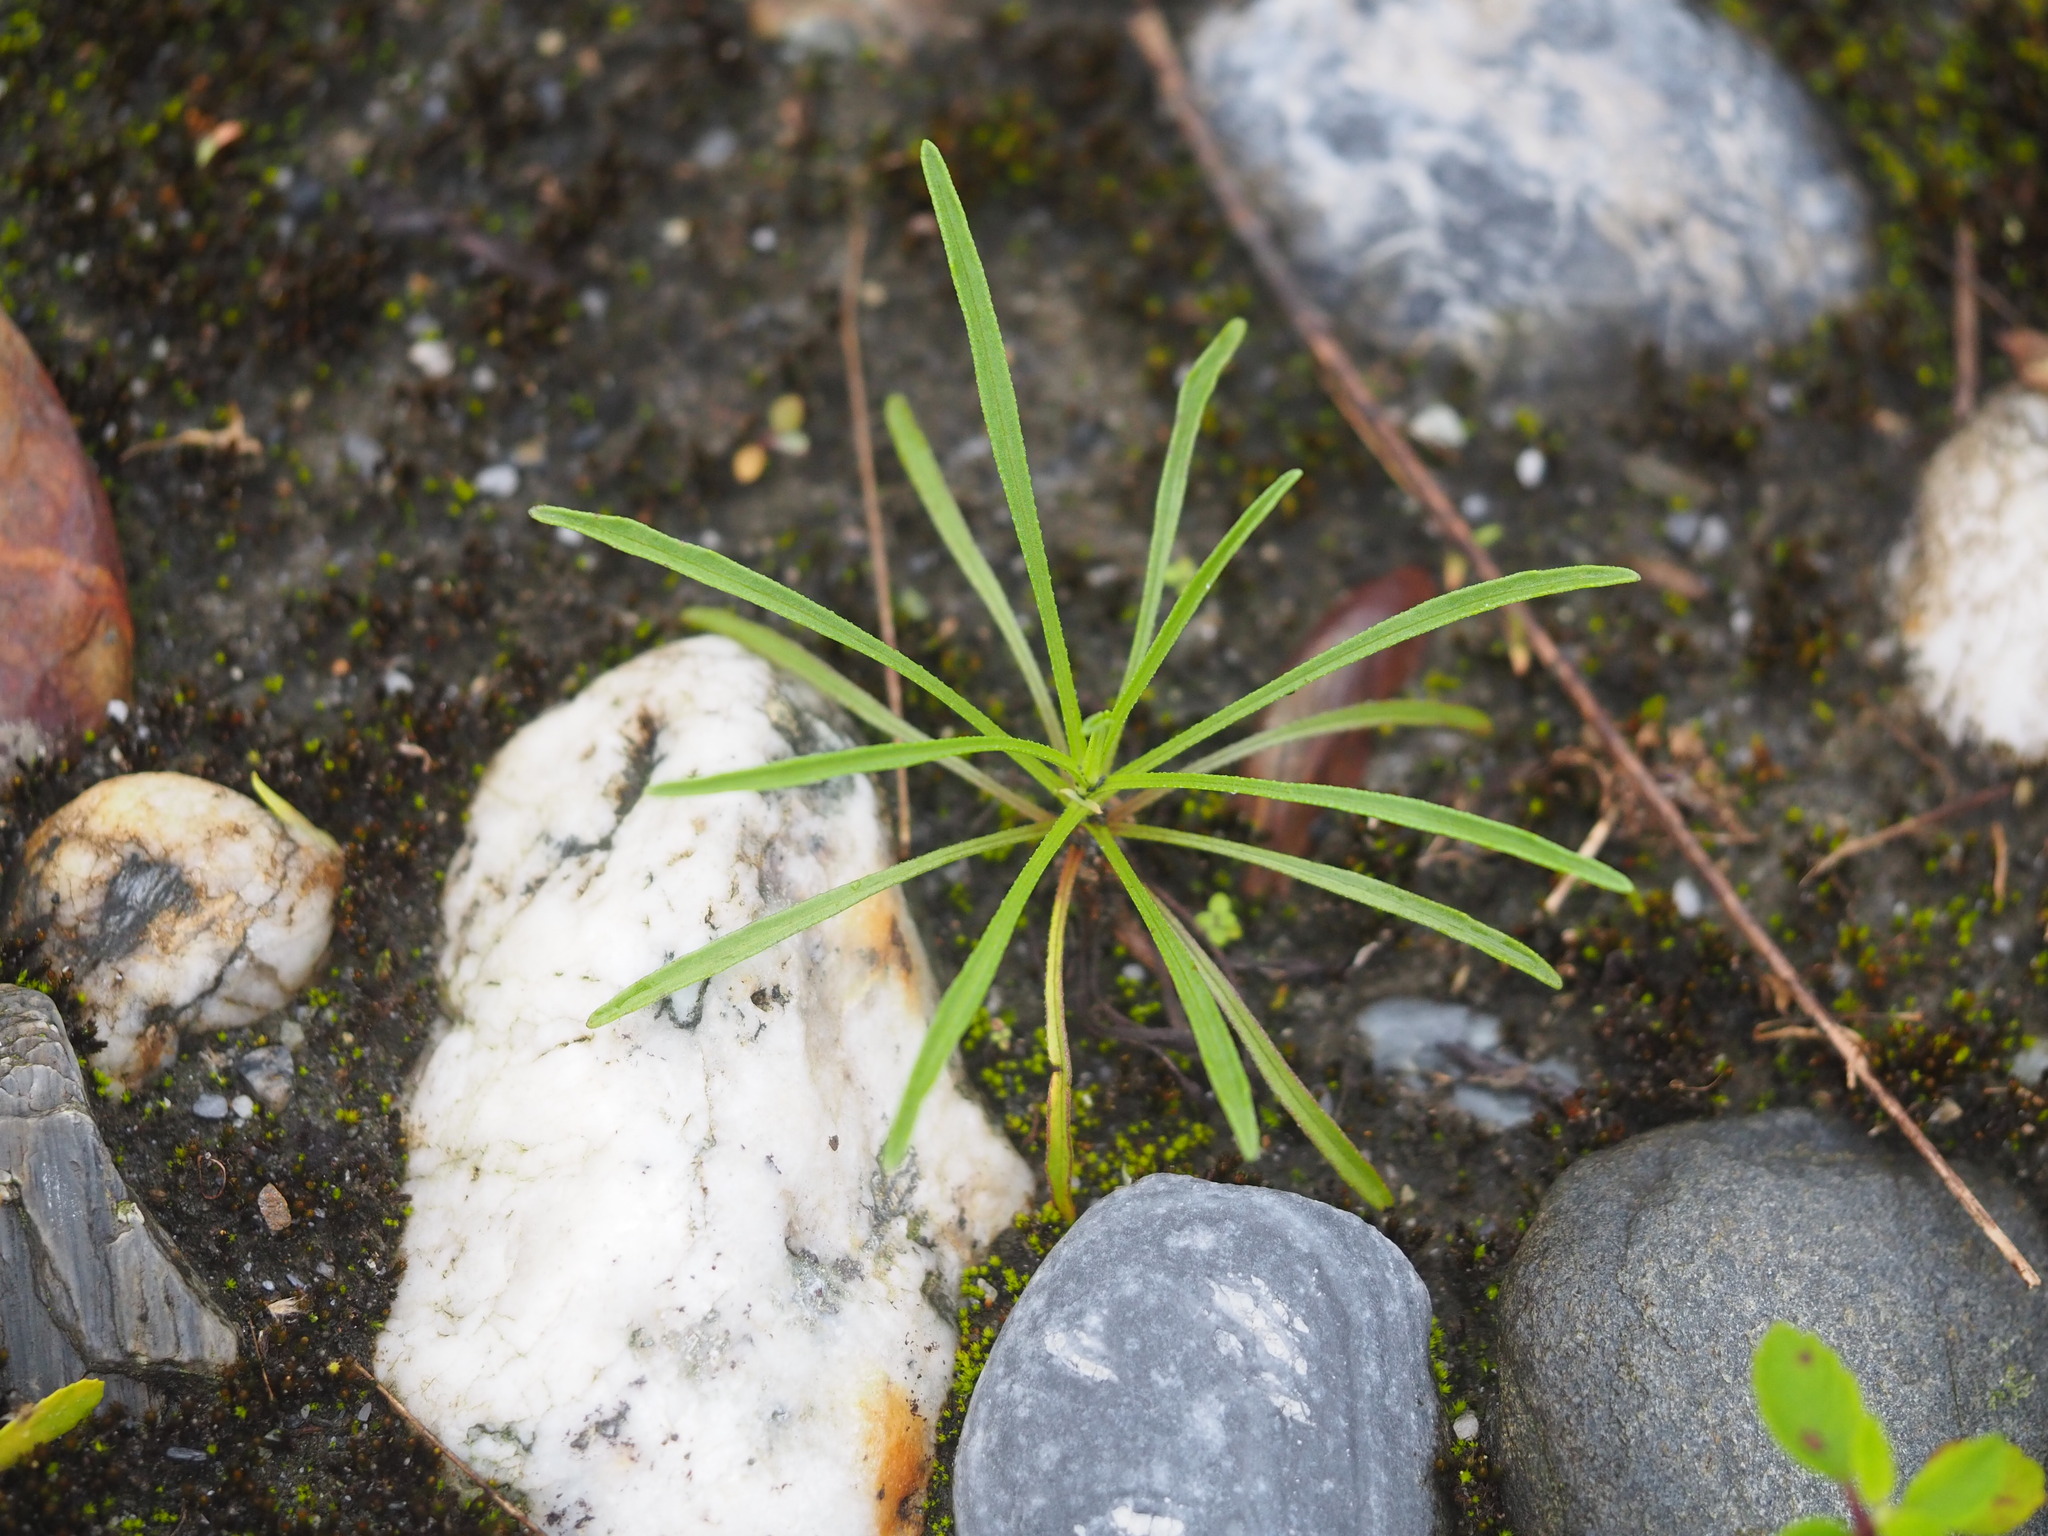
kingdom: Plantae
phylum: Tracheophyta
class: Magnoliopsida
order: Asterales
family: Asteraceae
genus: Heteropappus
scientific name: Heteropappus altaicus
